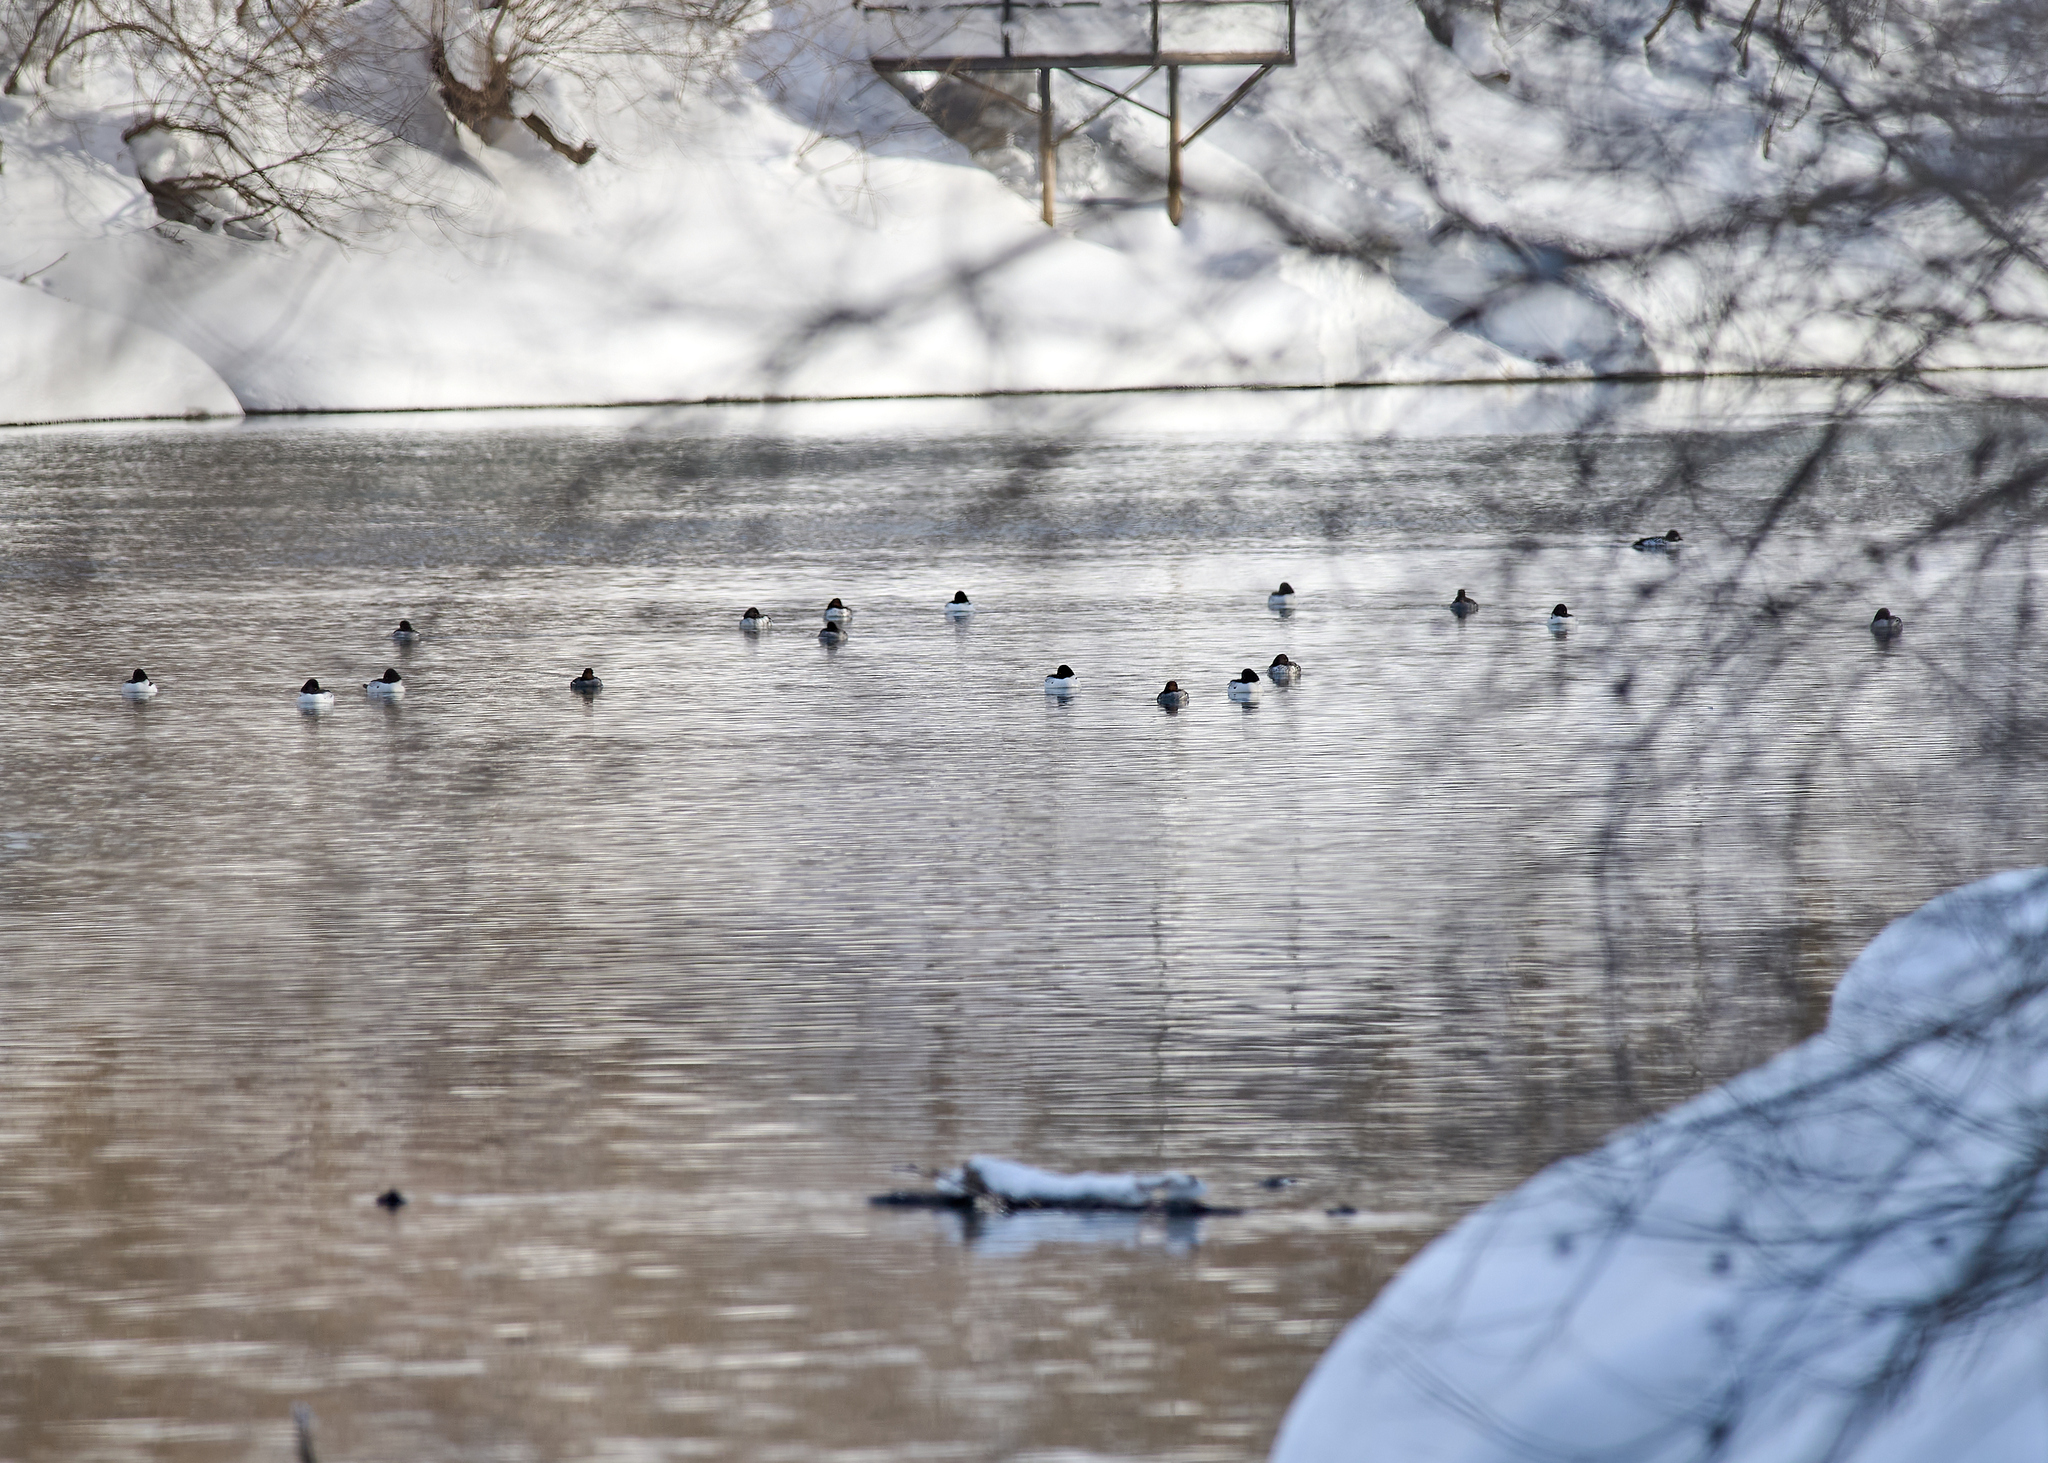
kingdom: Animalia
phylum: Chordata
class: Aves
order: Anseriformes
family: Anatidae
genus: Bucephala
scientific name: Bucephala clangula
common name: Common goldeneye
